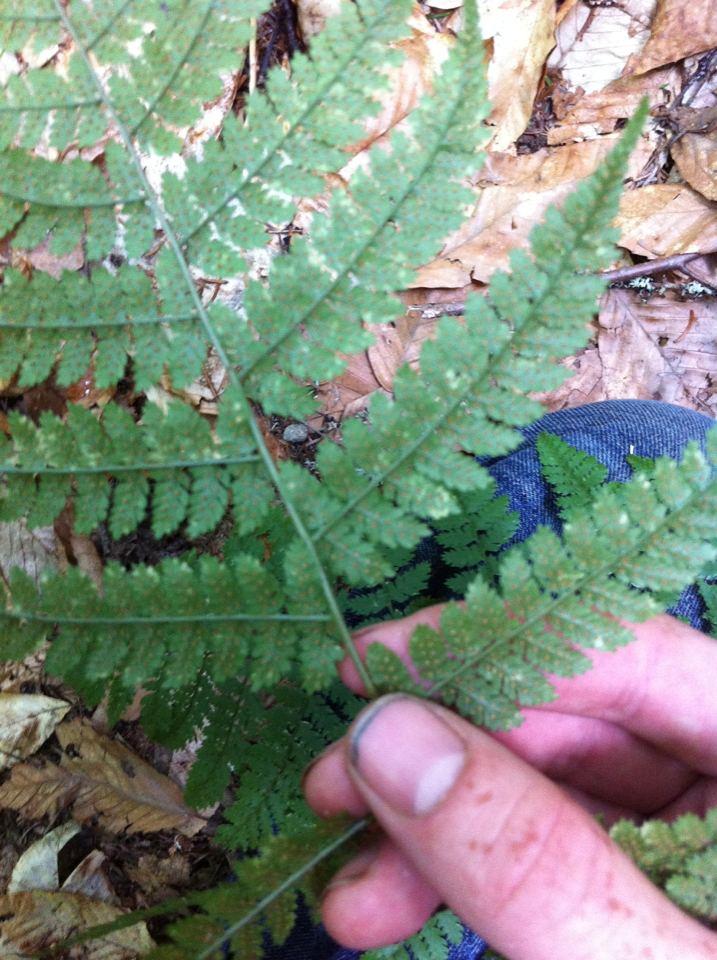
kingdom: Plantae
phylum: Tracheophyta
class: Polypodiopsida
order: Polypodiales
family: Dryopteridaceae
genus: Dryopteris
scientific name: Dryopteris intermedia
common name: Evergreen wood fern
